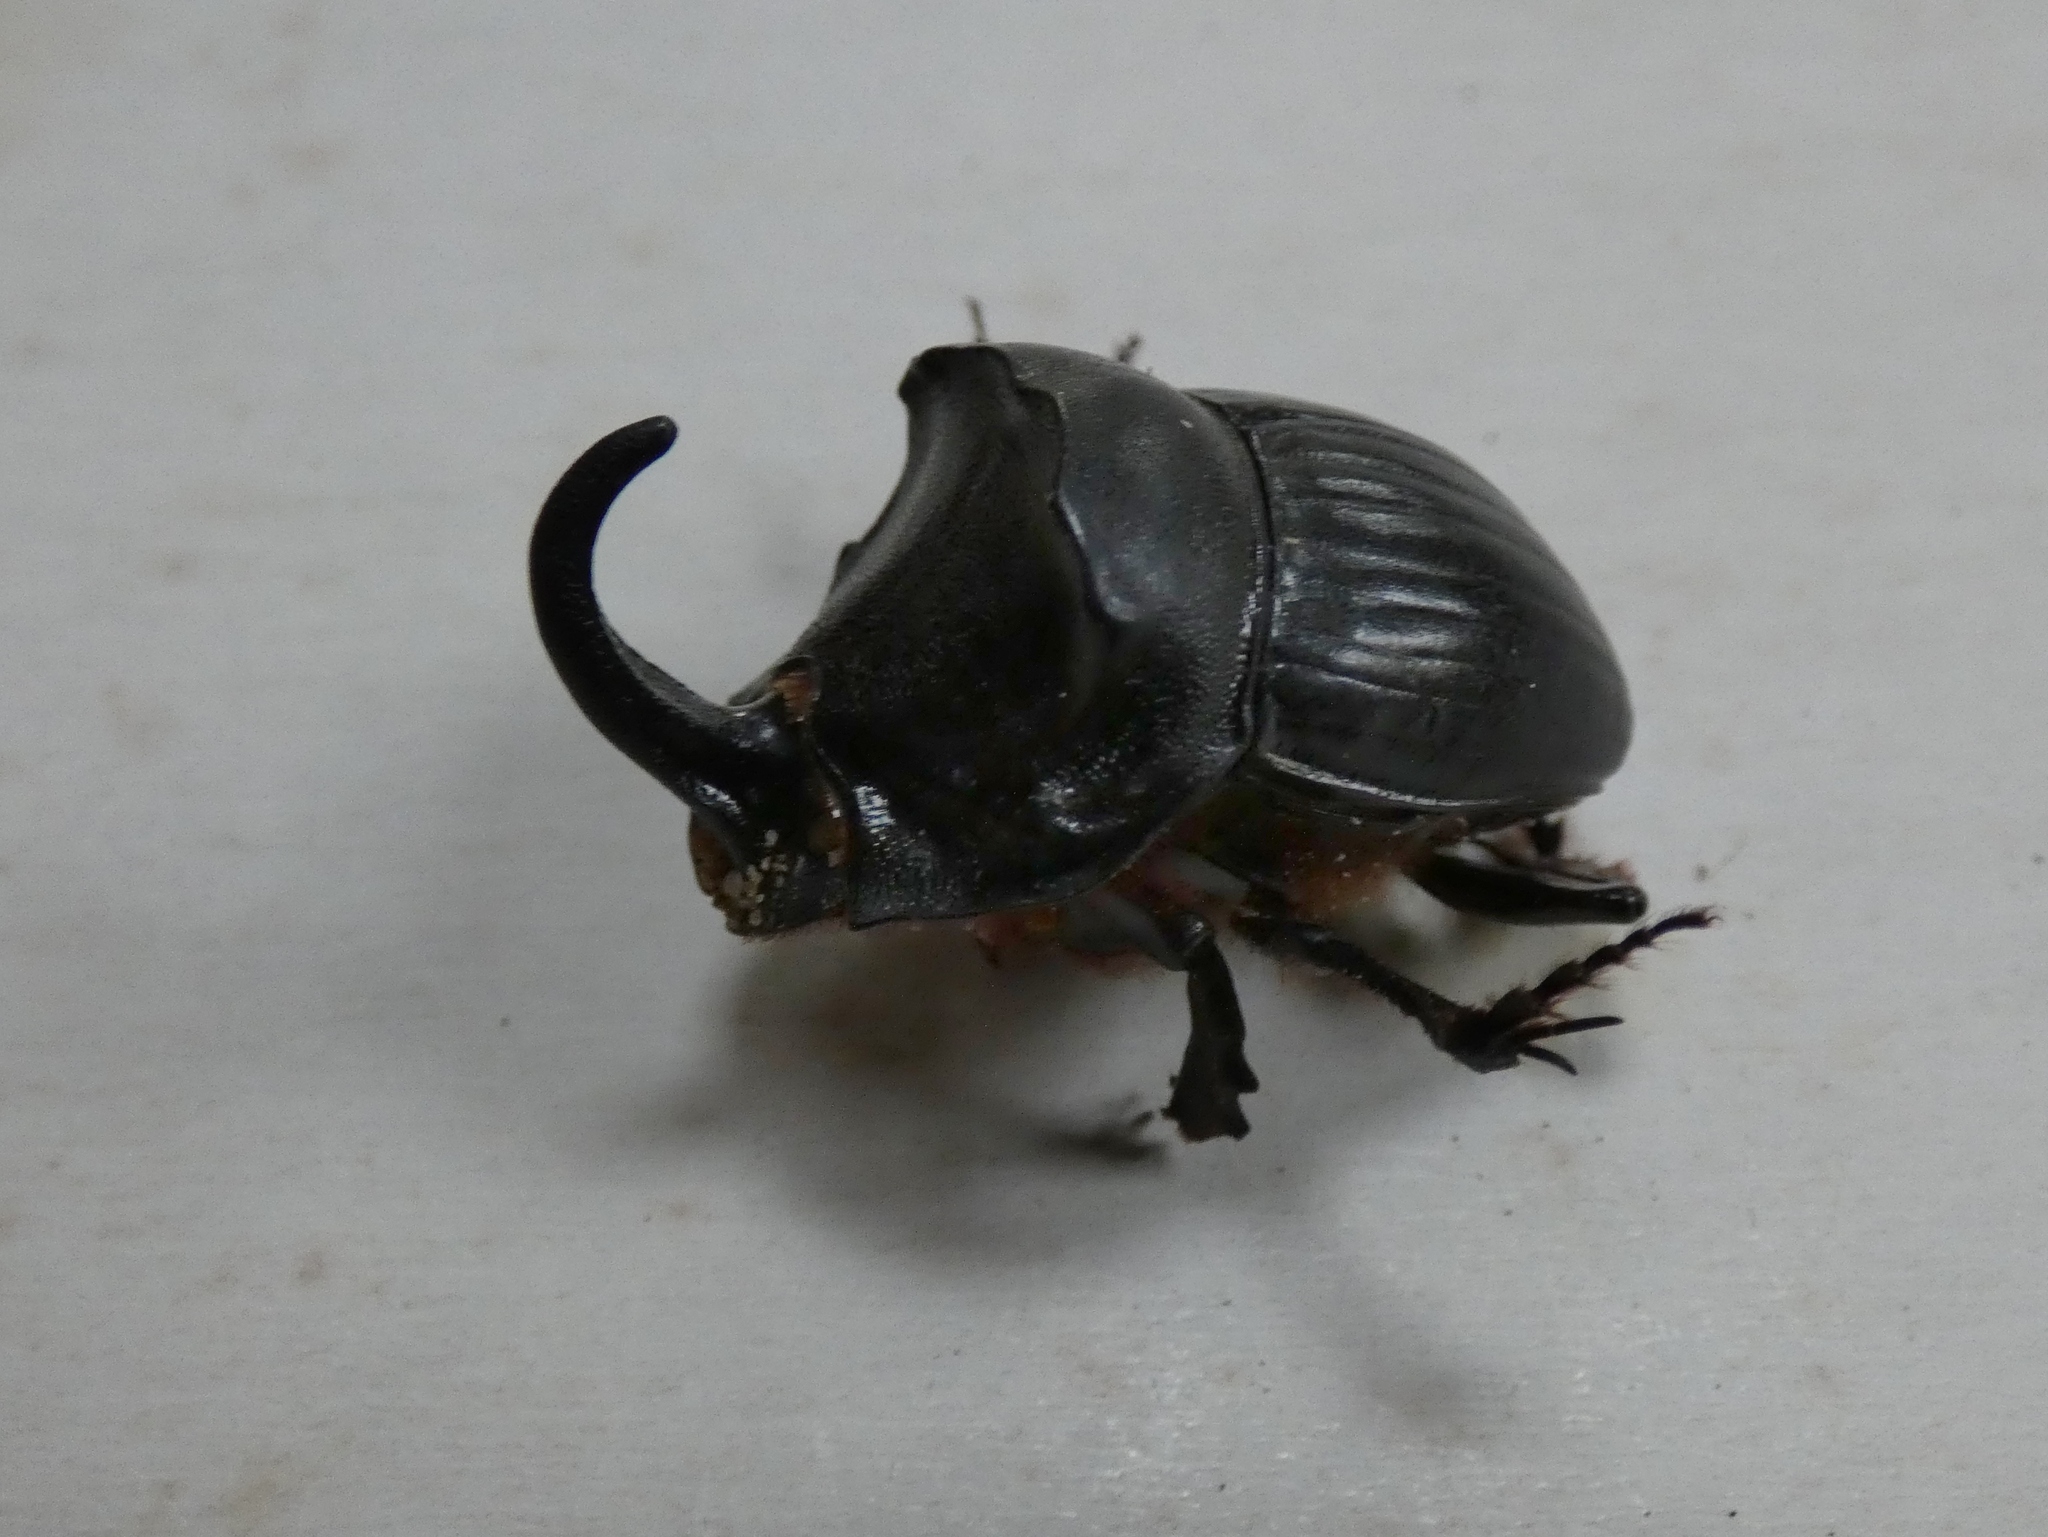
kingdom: Animalia
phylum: Arthropoda
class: Insecta
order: Coleoptera
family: Scarabaeidae
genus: Copris
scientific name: Copris hispanus
